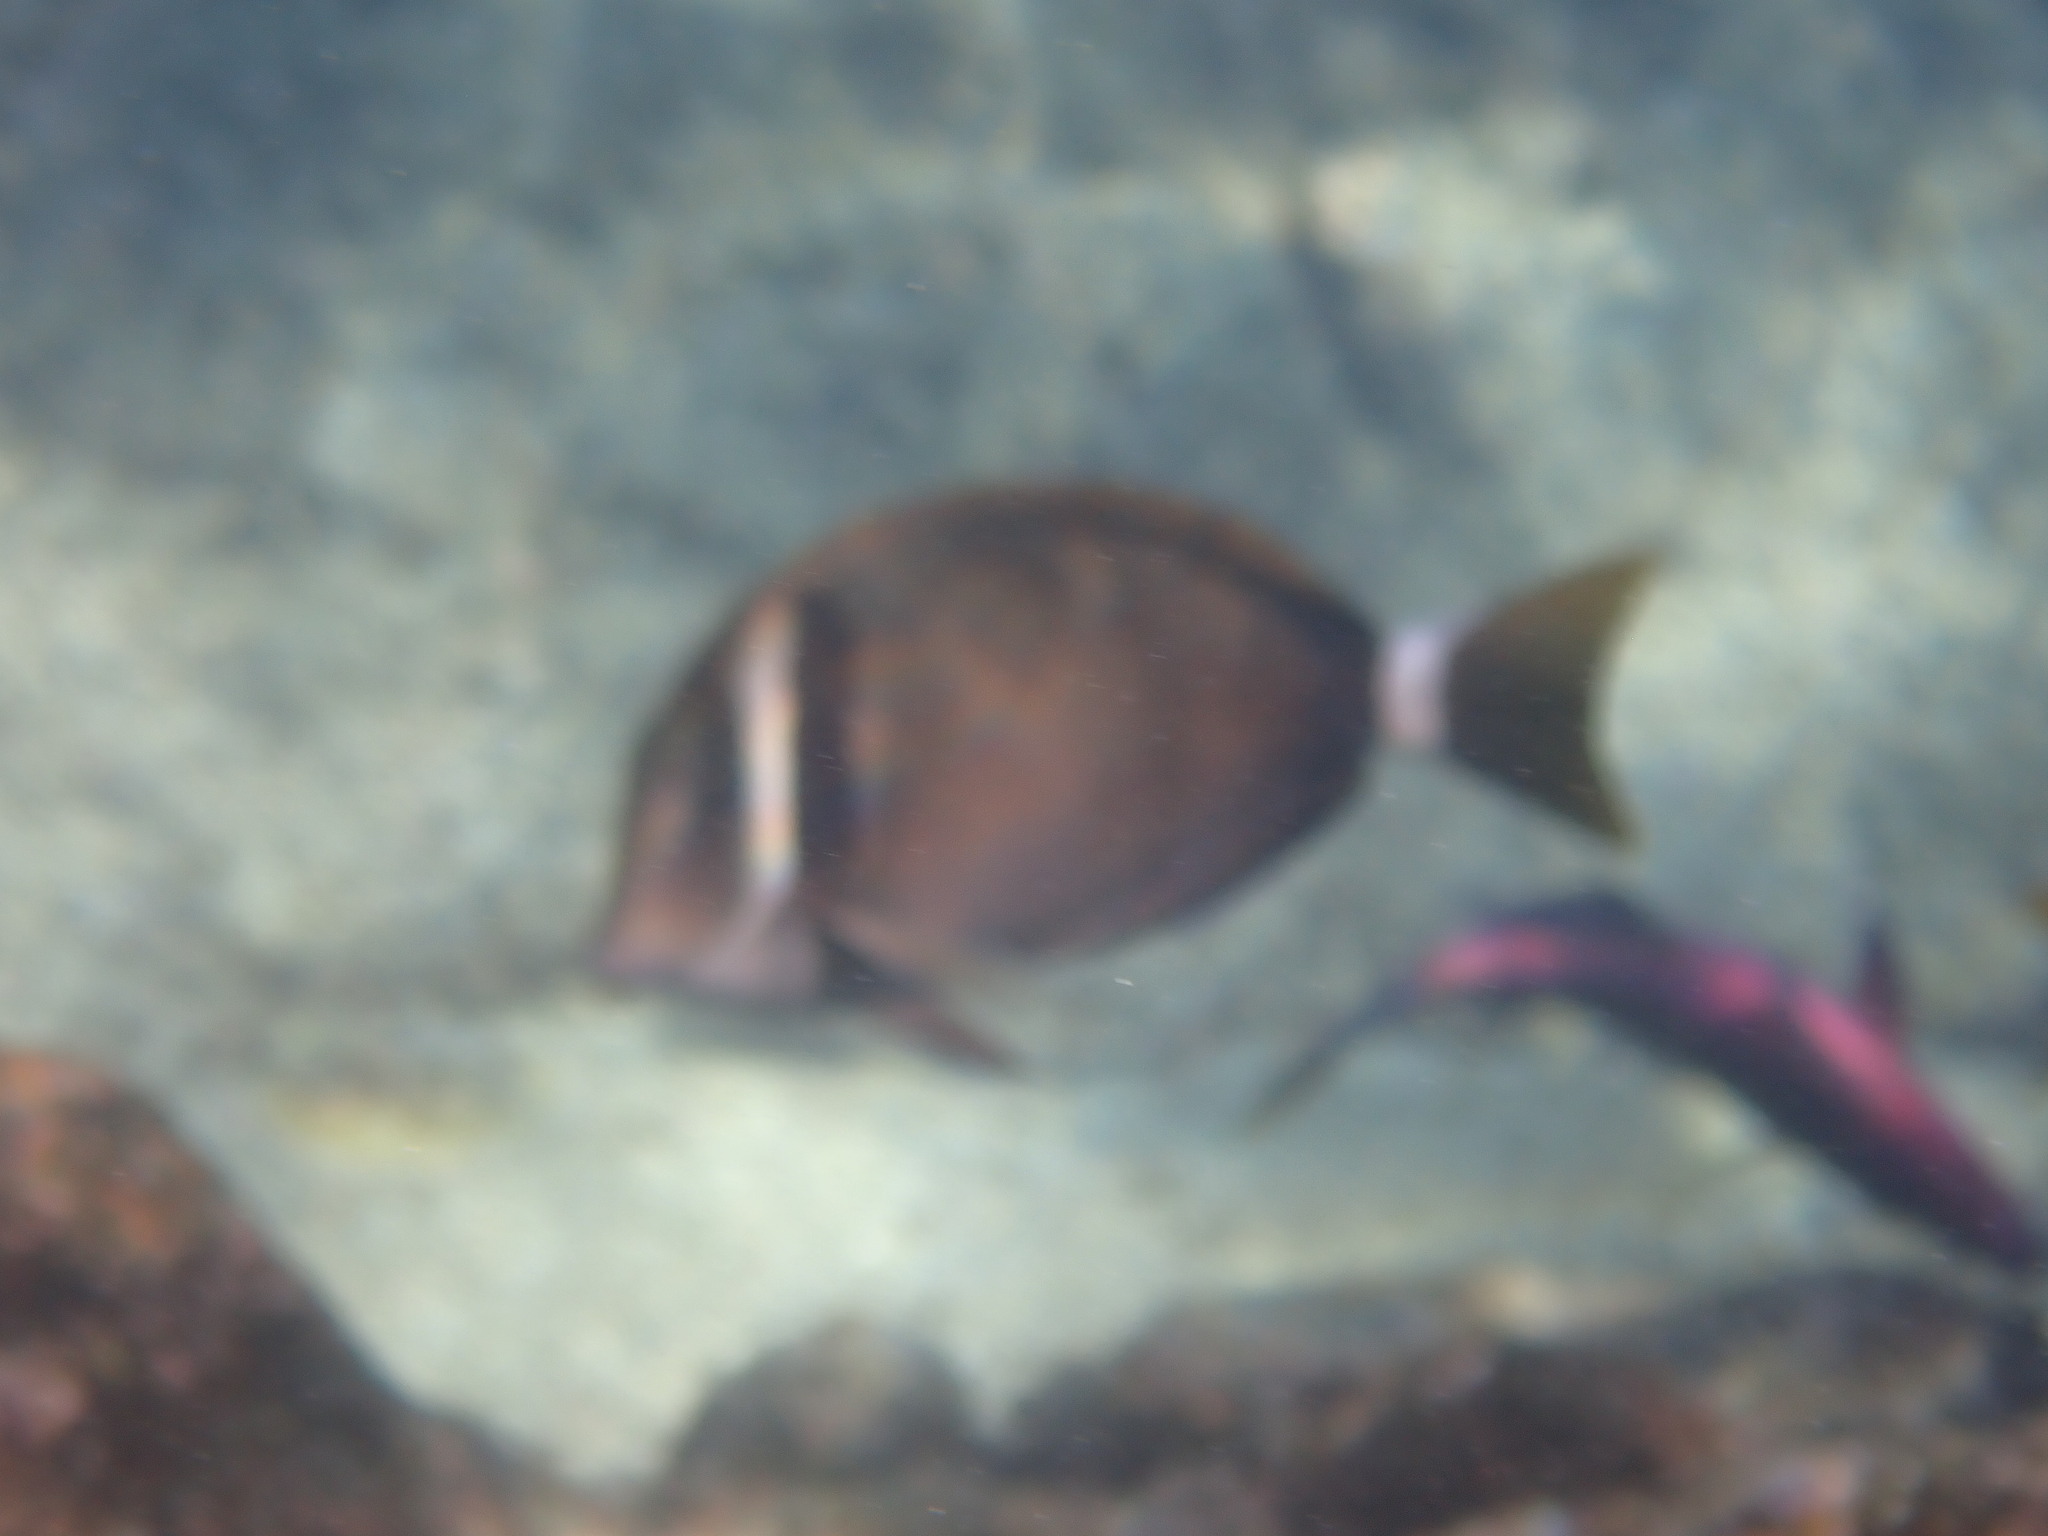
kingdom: Animalia
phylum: Chordata
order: Perciformes
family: Acanthuridae
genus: Acanthurus
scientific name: Acanthurus leucopareius
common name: Head-band surgeonfish
